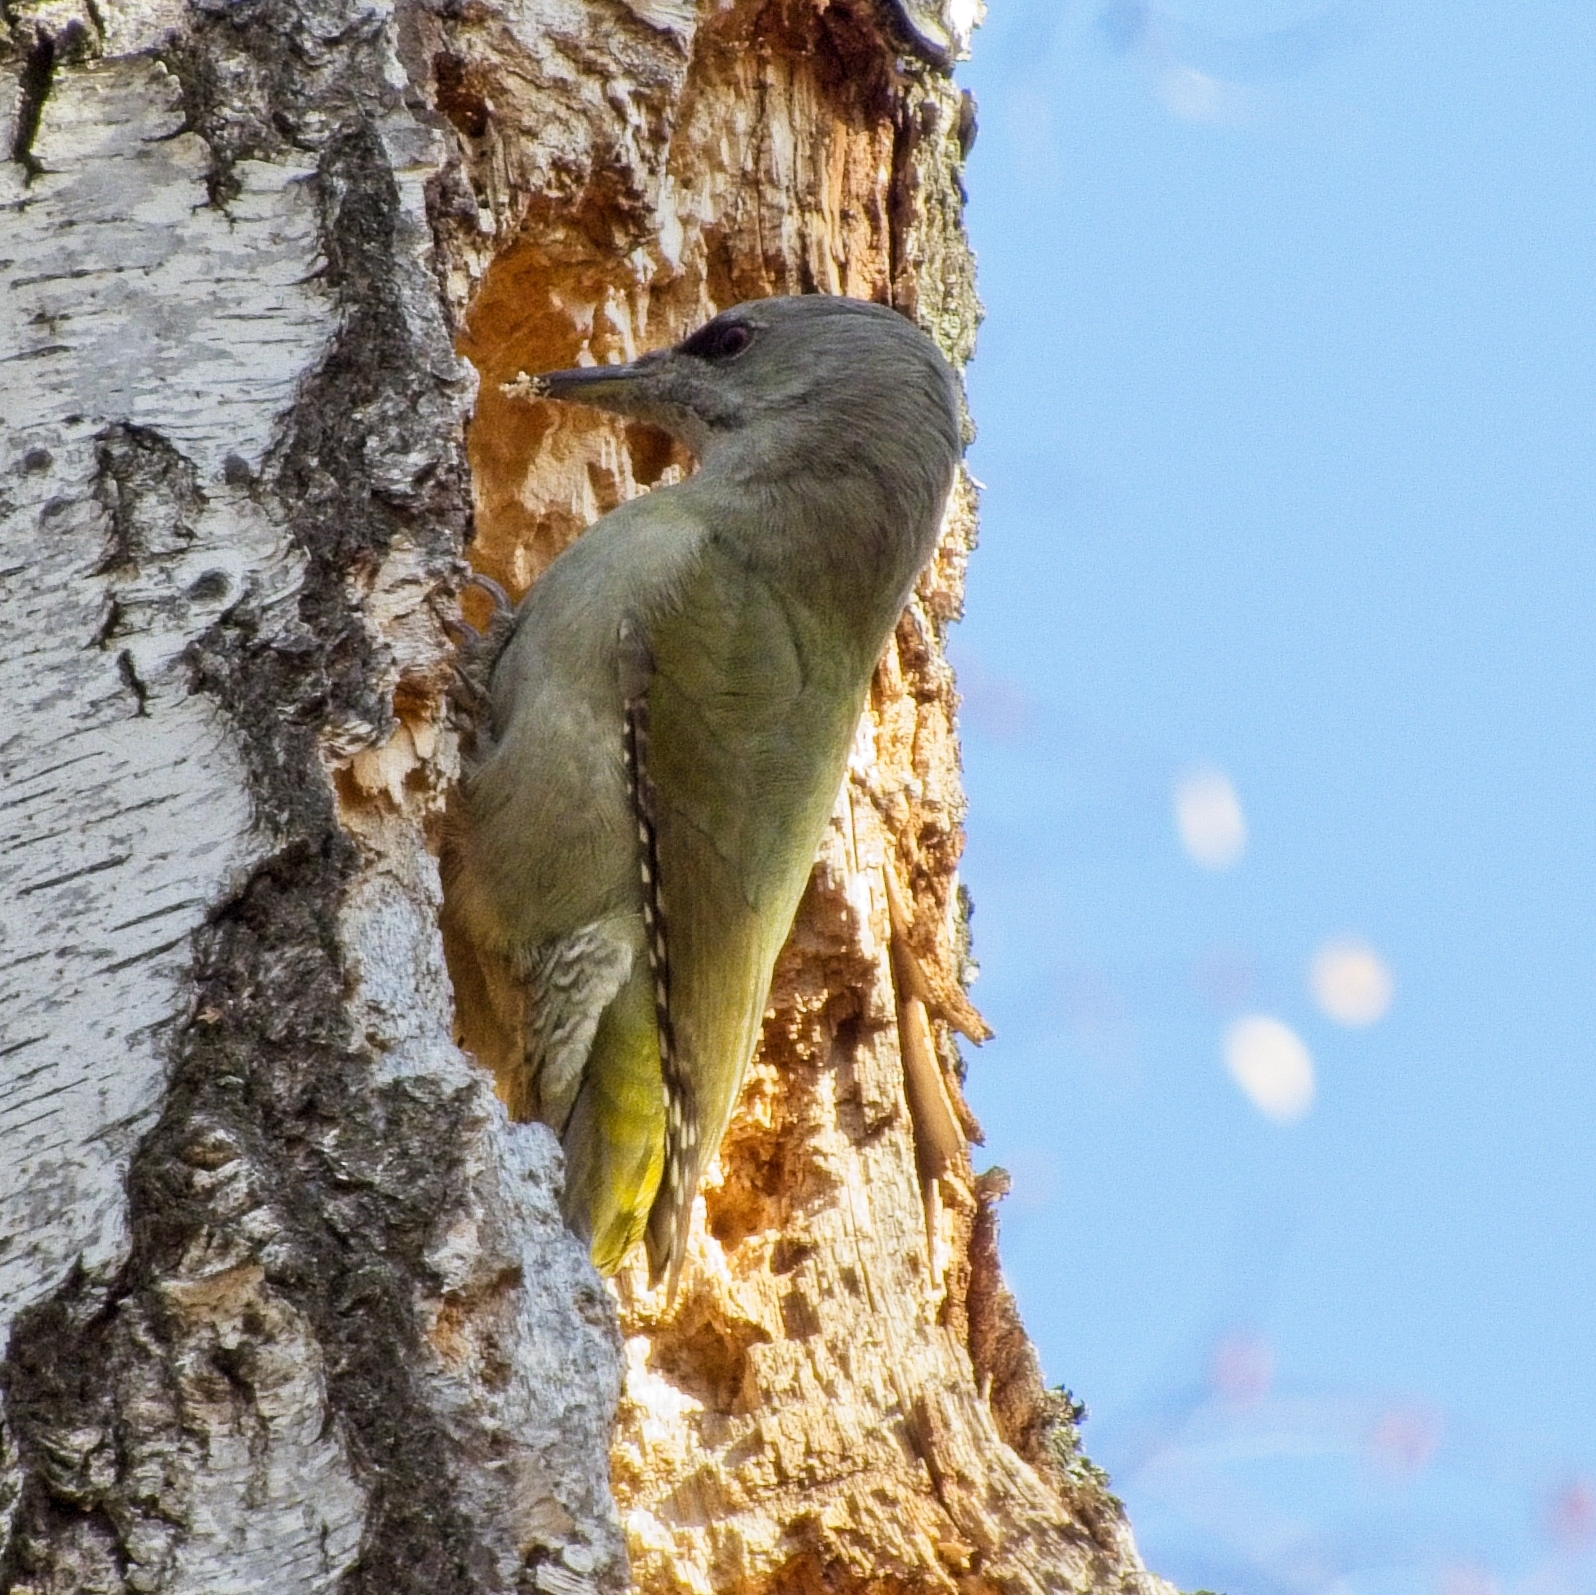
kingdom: Animalia
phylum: Chordata
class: Aves
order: Piciformes
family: Picidae
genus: Picus
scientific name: Picus canus
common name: Grey-headed woodpecker
